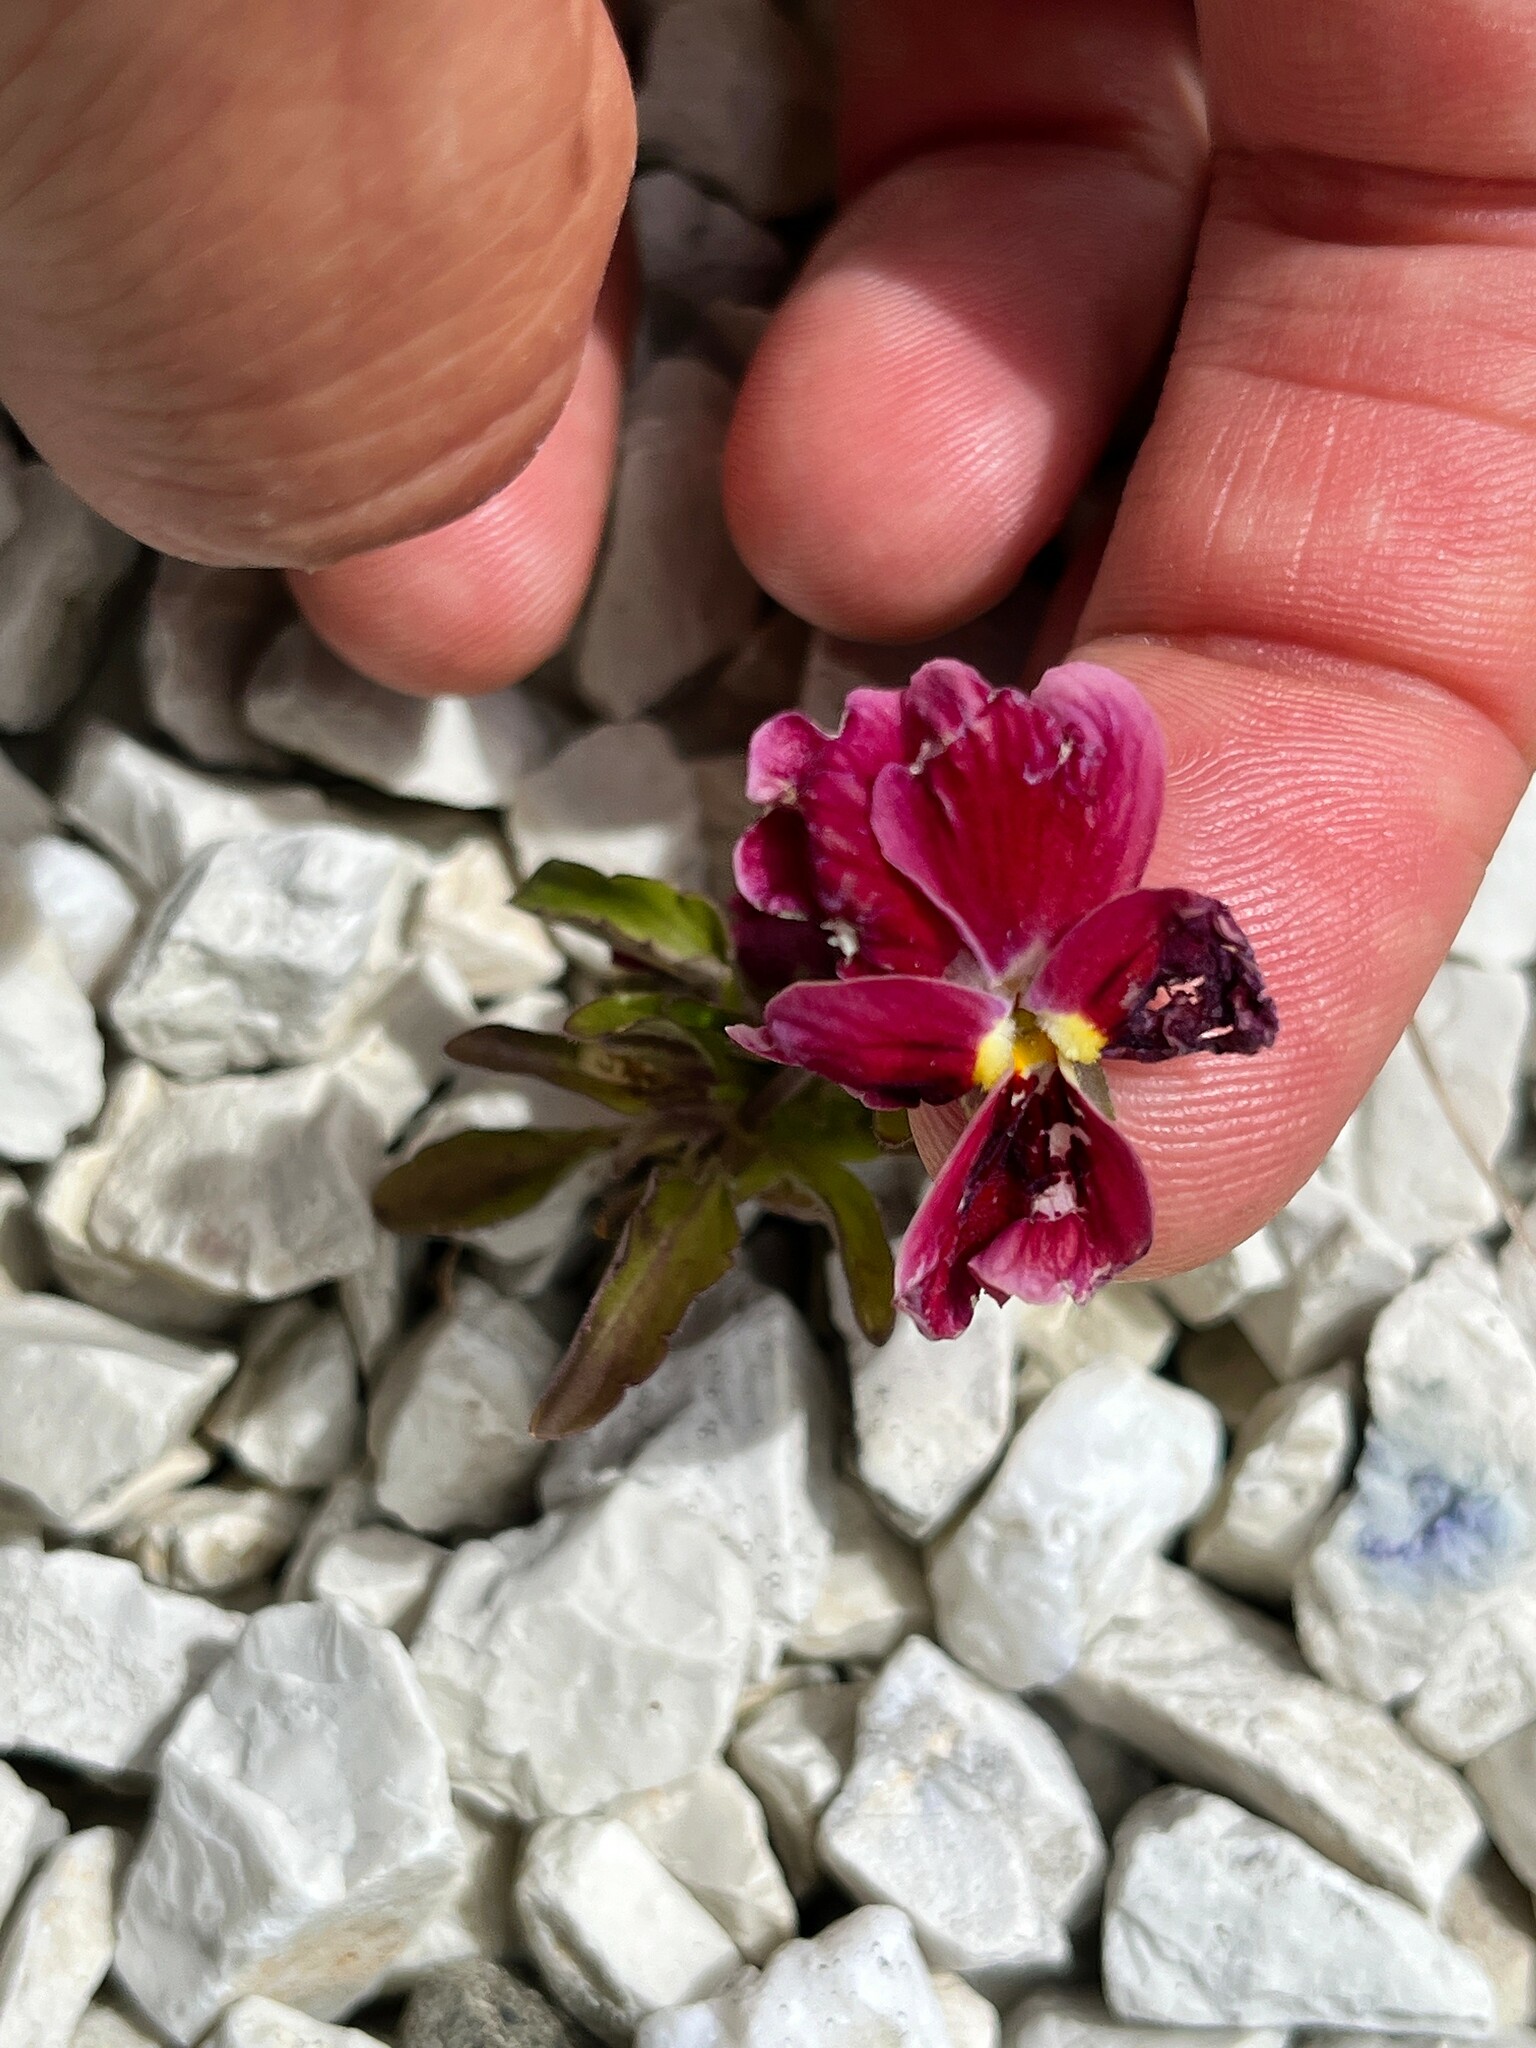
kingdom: Plantae
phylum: Tracheophyta
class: Magnoliopsida
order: Malpighiales
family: Violaceae
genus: Viola
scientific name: Viola wittrockiana
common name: Garden pansy
